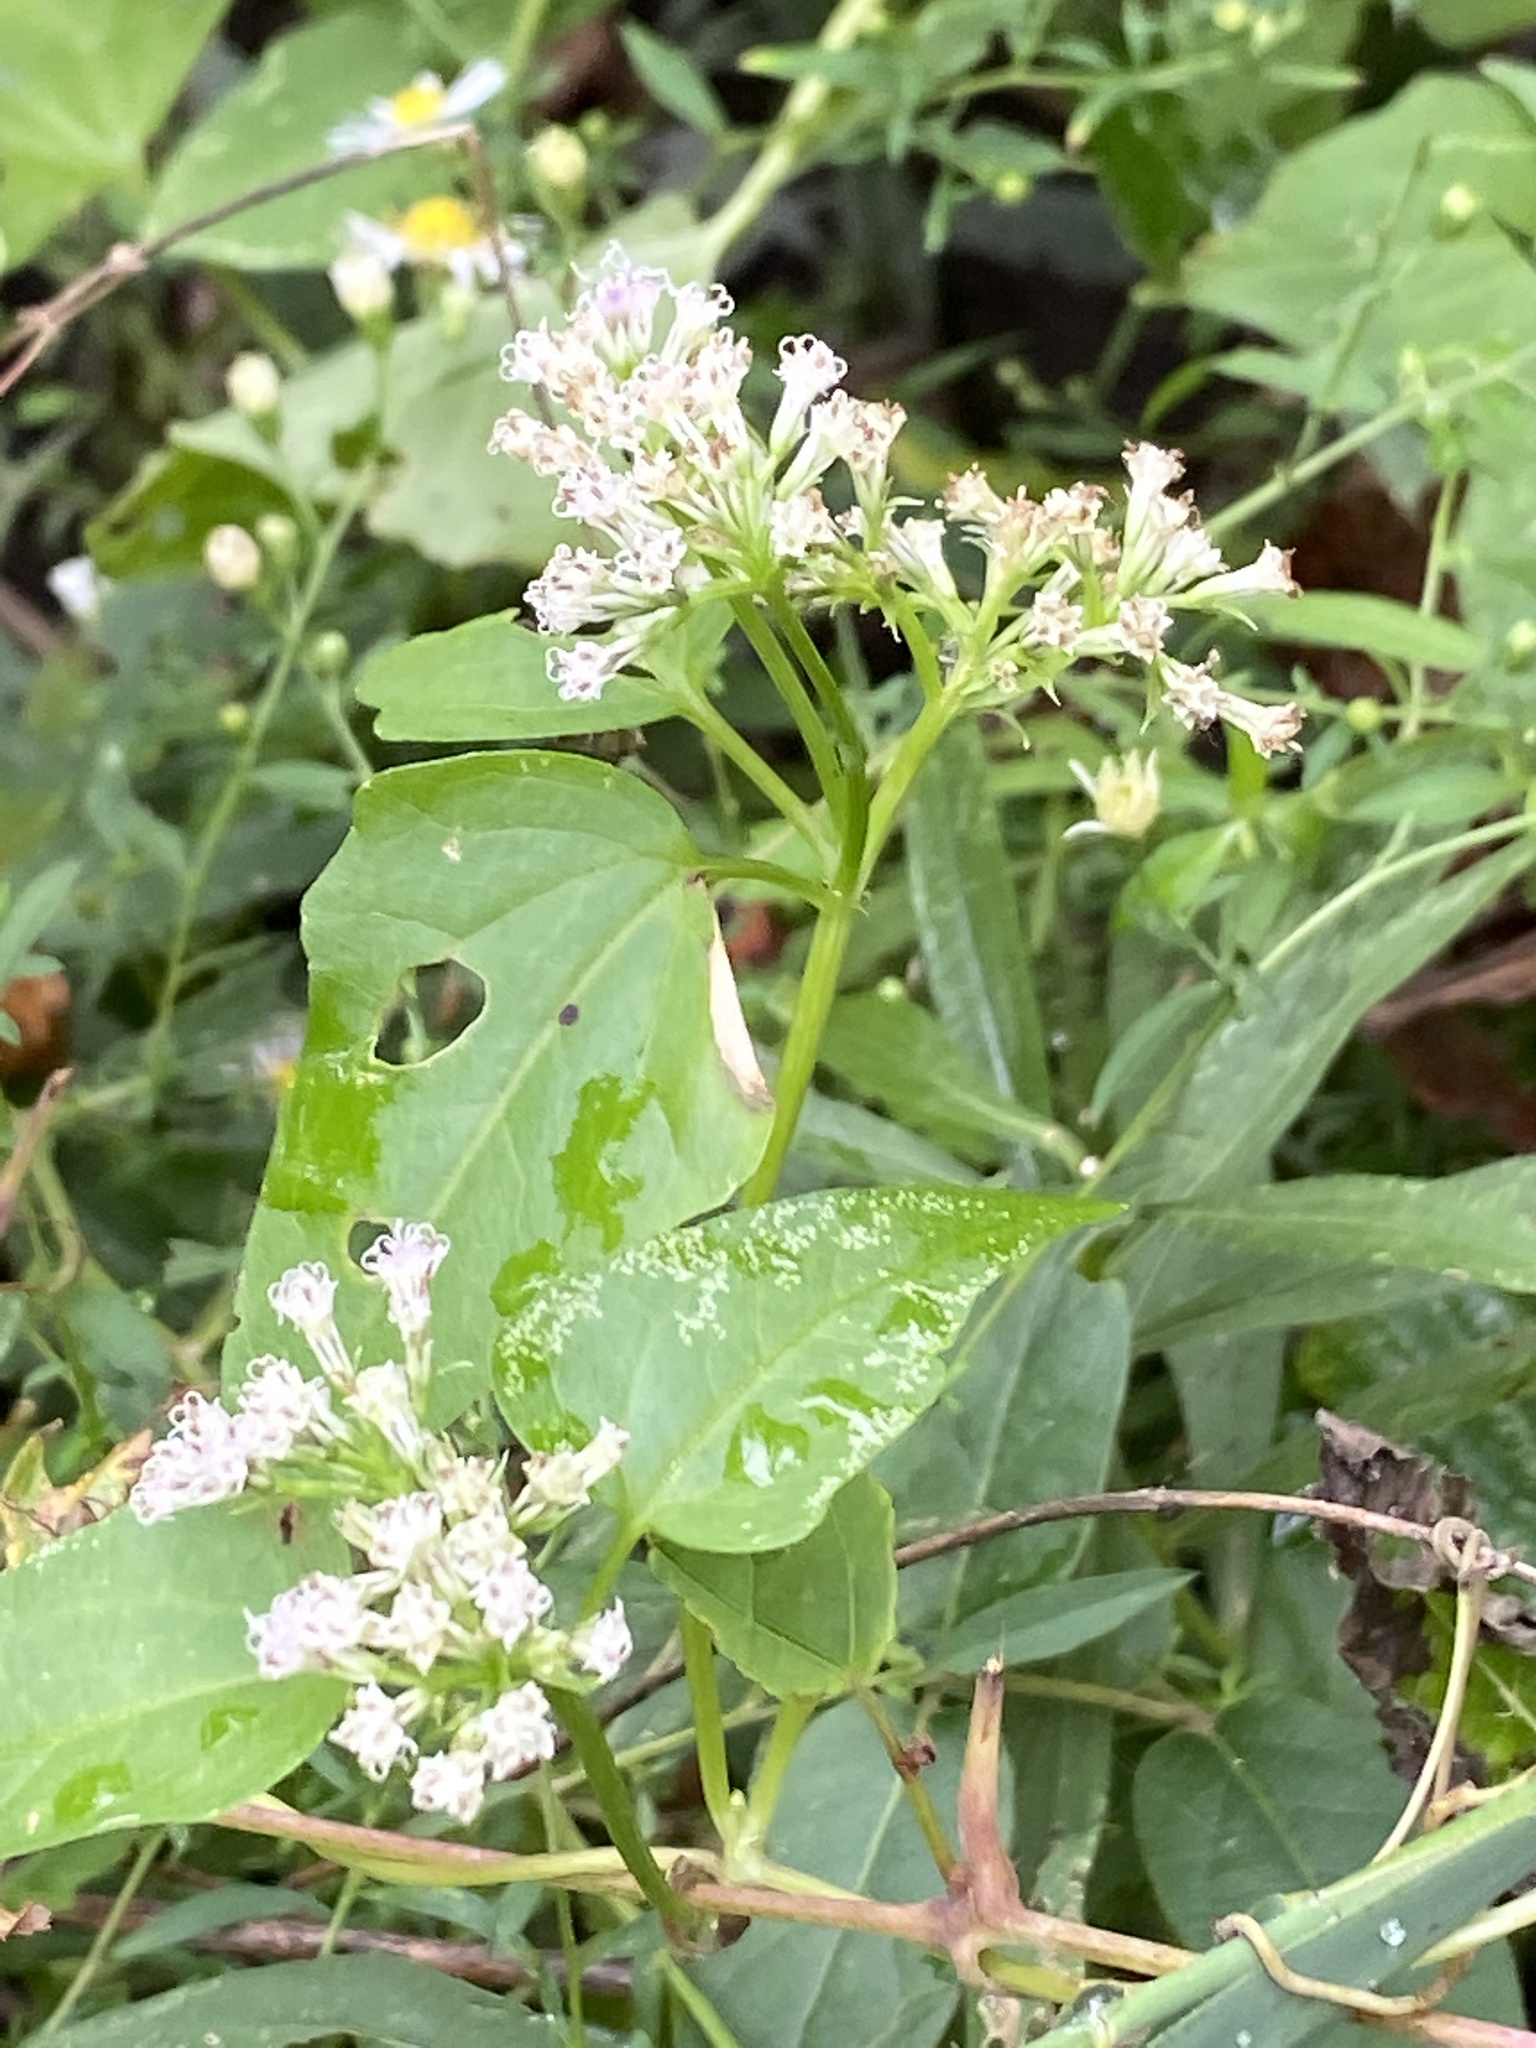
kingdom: Plantae
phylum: Tracheophyta
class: Magnoliopsida
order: Asterales
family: Asteraceae
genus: Mikania
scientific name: Mikania scandens
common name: Climbing hempvine
